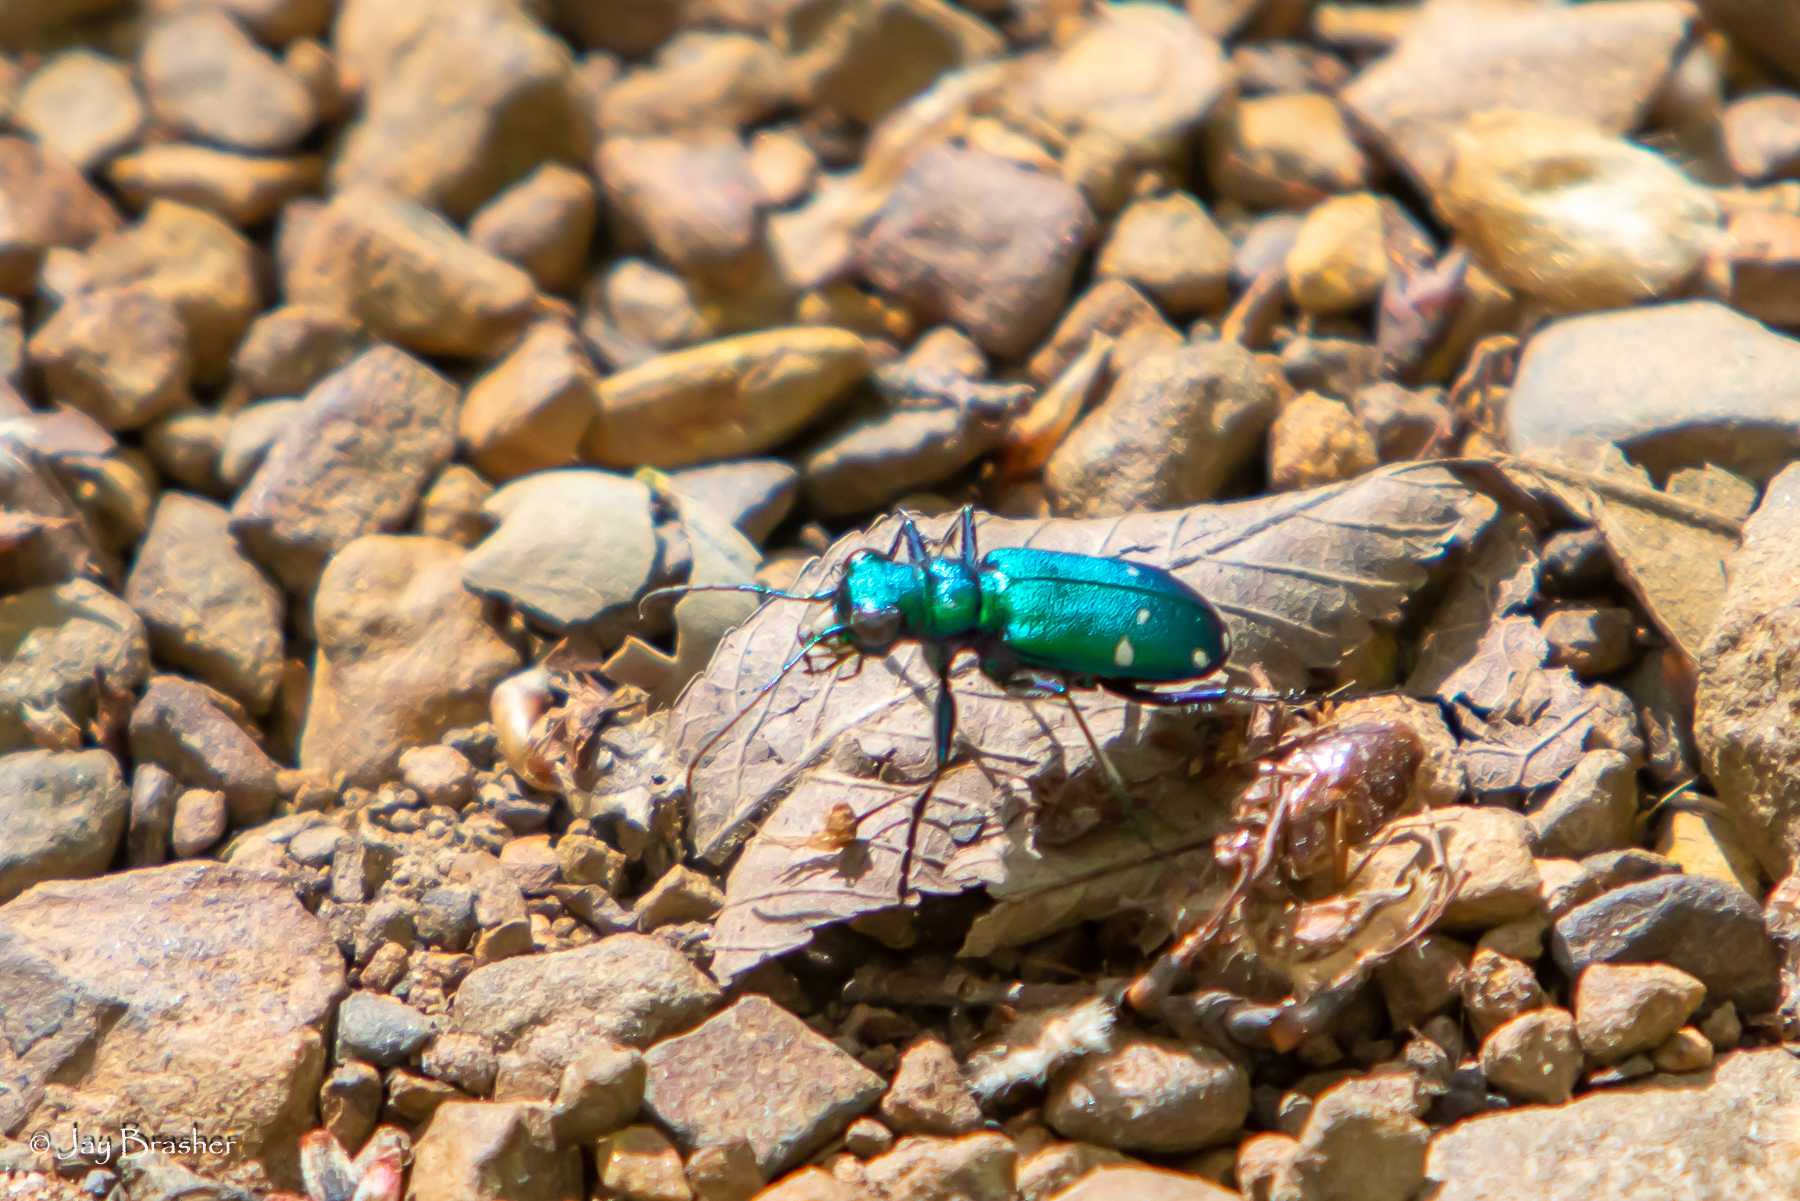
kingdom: Animalia
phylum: Arthropoda
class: Insecta
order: Coleoptera
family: Carabidae
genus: Cicindela
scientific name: Cicindela sexguttata
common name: Six-spotted tiger beetle
